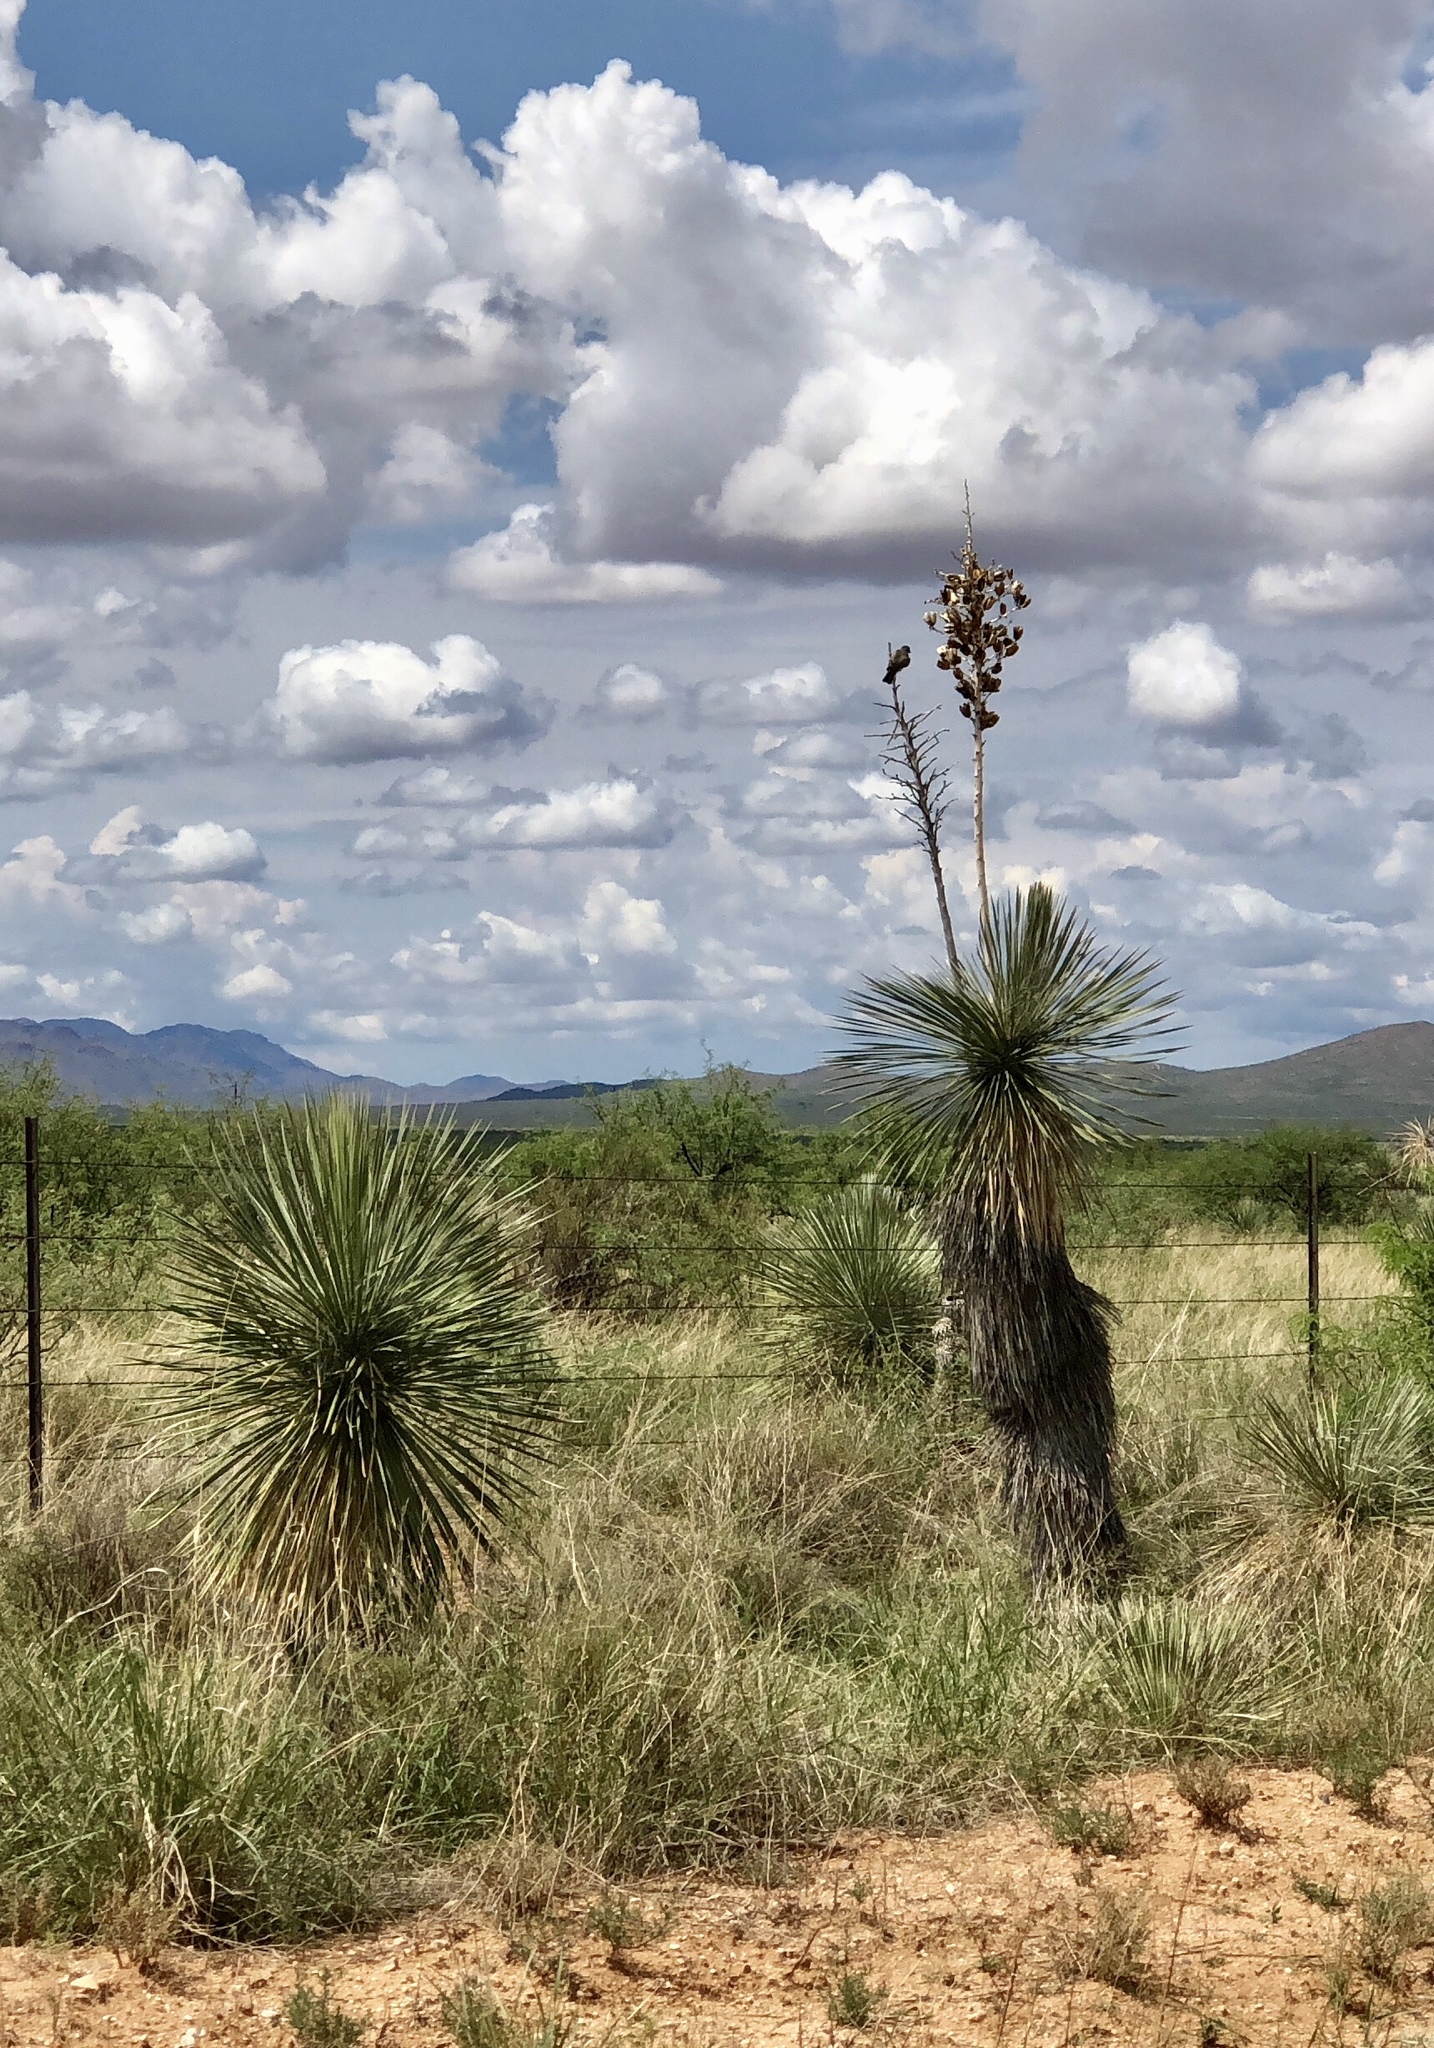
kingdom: Plantae
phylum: Tracheophyta
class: Liliopsida
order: Asparagales
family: Asparagaceae
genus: Yucca
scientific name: Yucca elata
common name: Palmella
